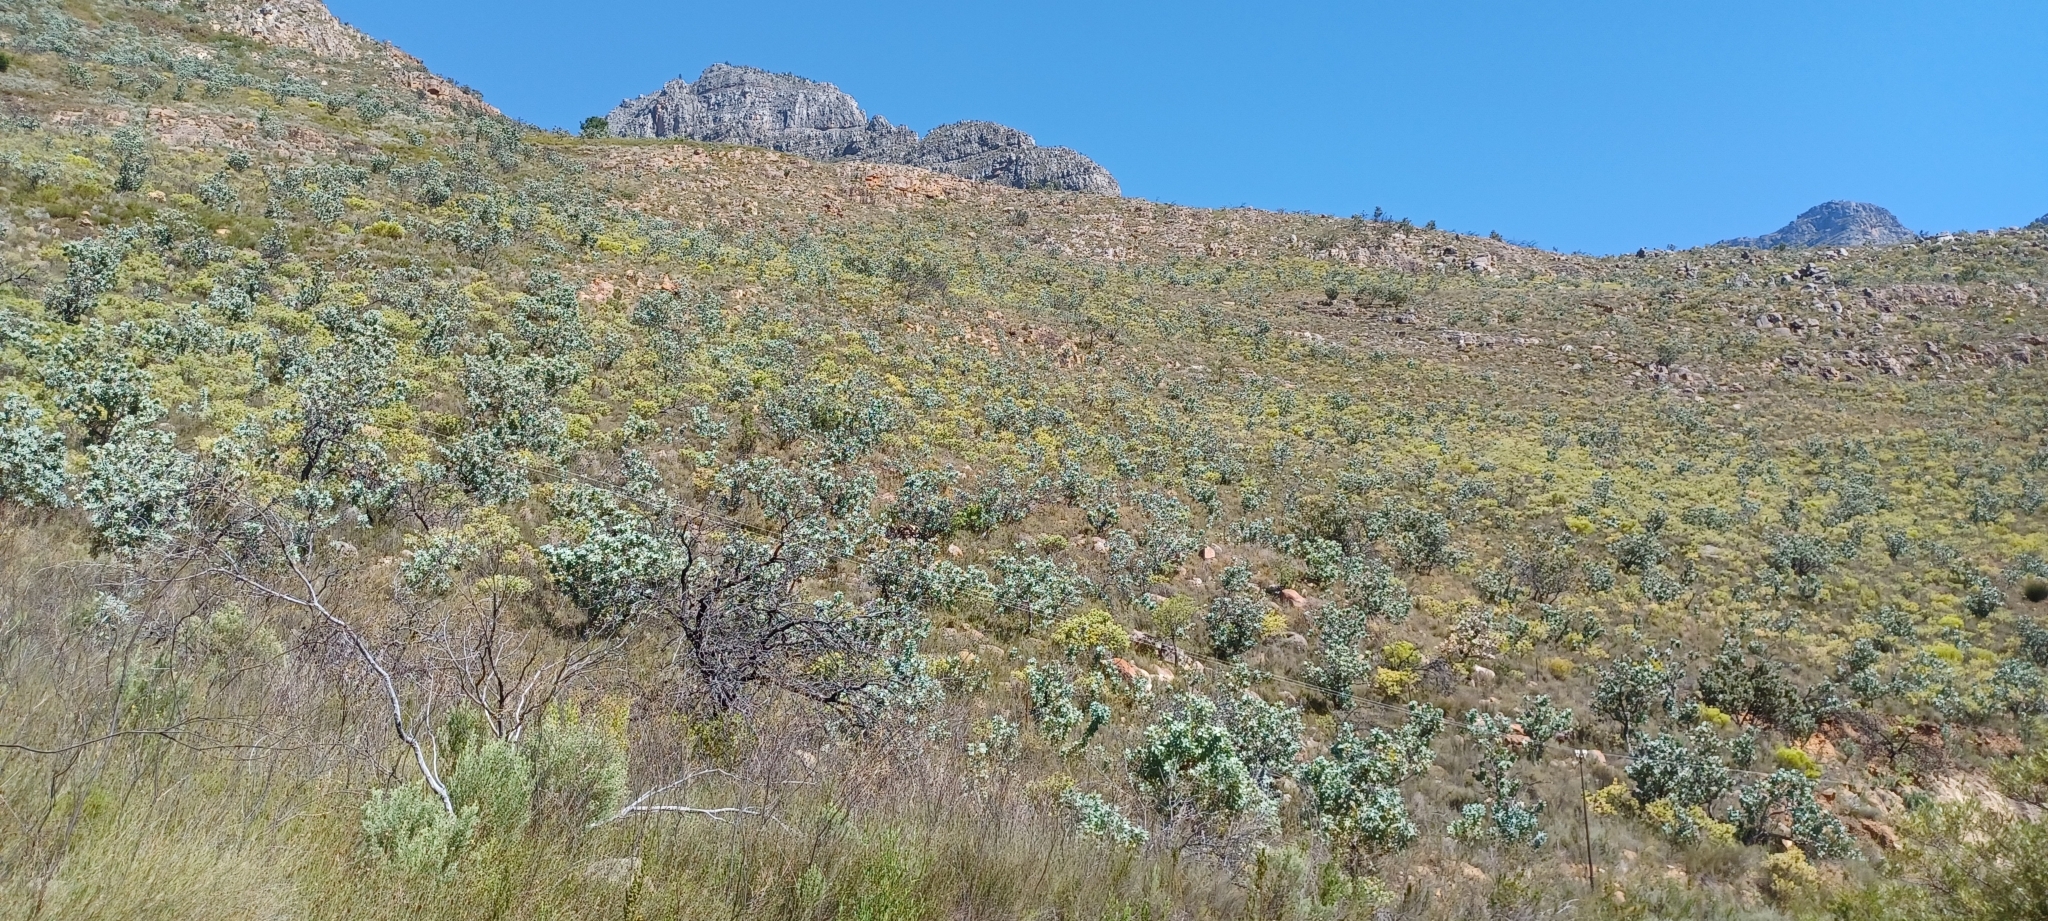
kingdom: Plantae
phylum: Tracheophyta
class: Magnoliopsida
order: Proteales
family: Proteaceae
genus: Protea
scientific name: Protea nitida
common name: Tree protea
